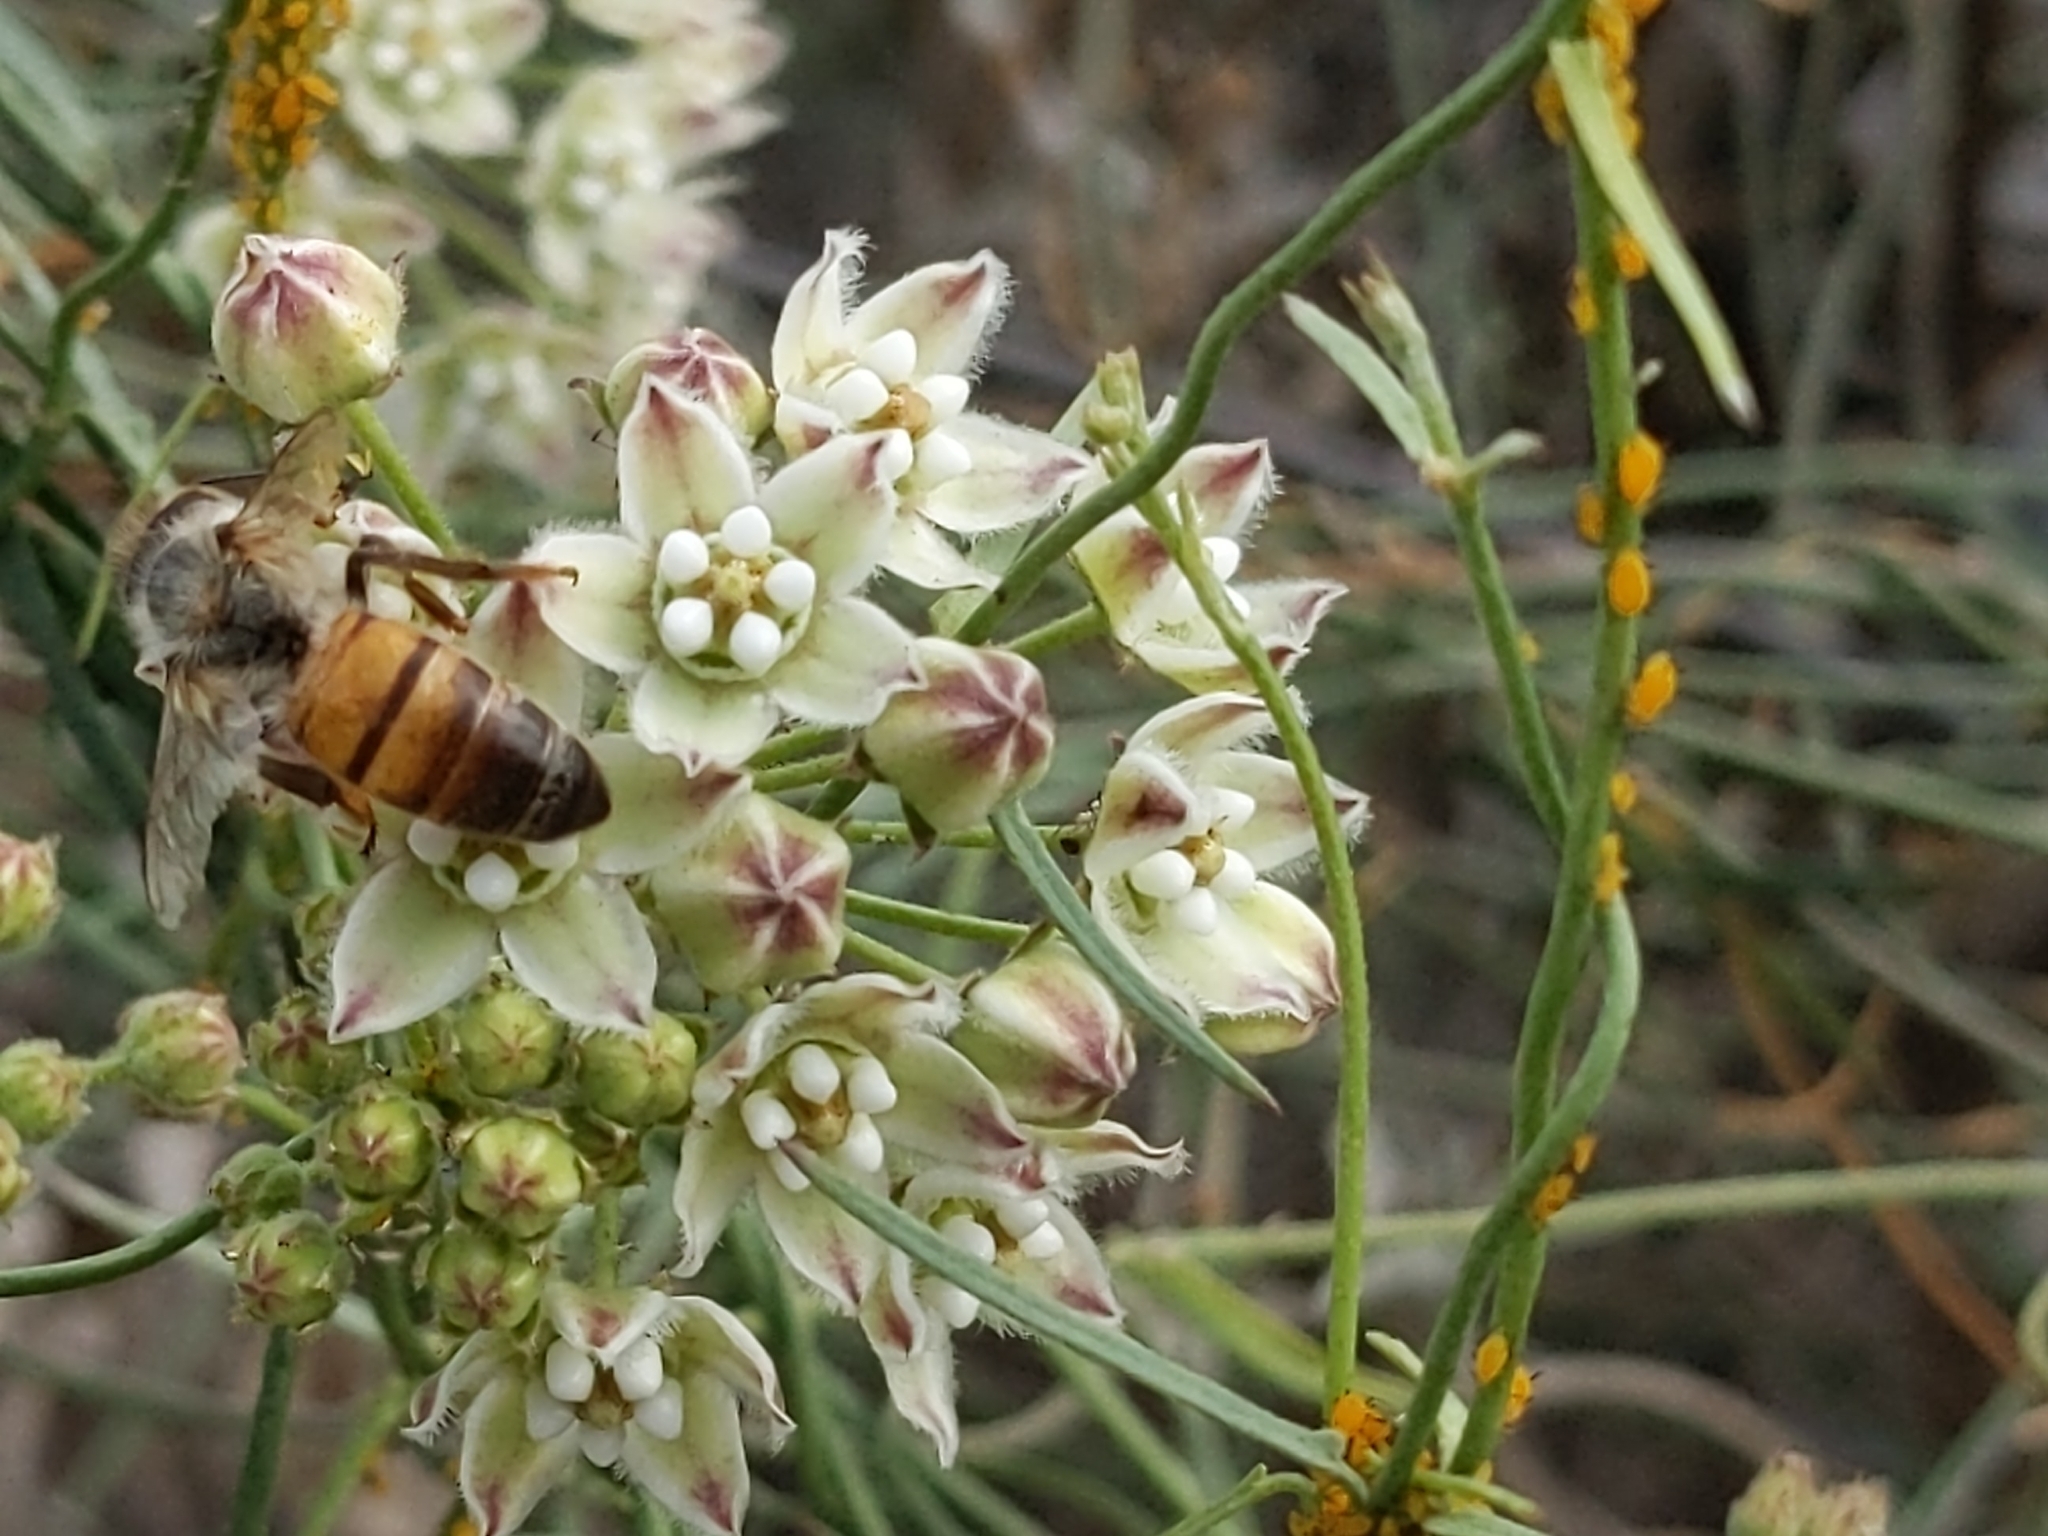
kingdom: Animalia
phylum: Arthropoda
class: Insecta
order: Hymenoptera
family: Apidae
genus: Apis
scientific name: Apis mellifera
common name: Honey bee
